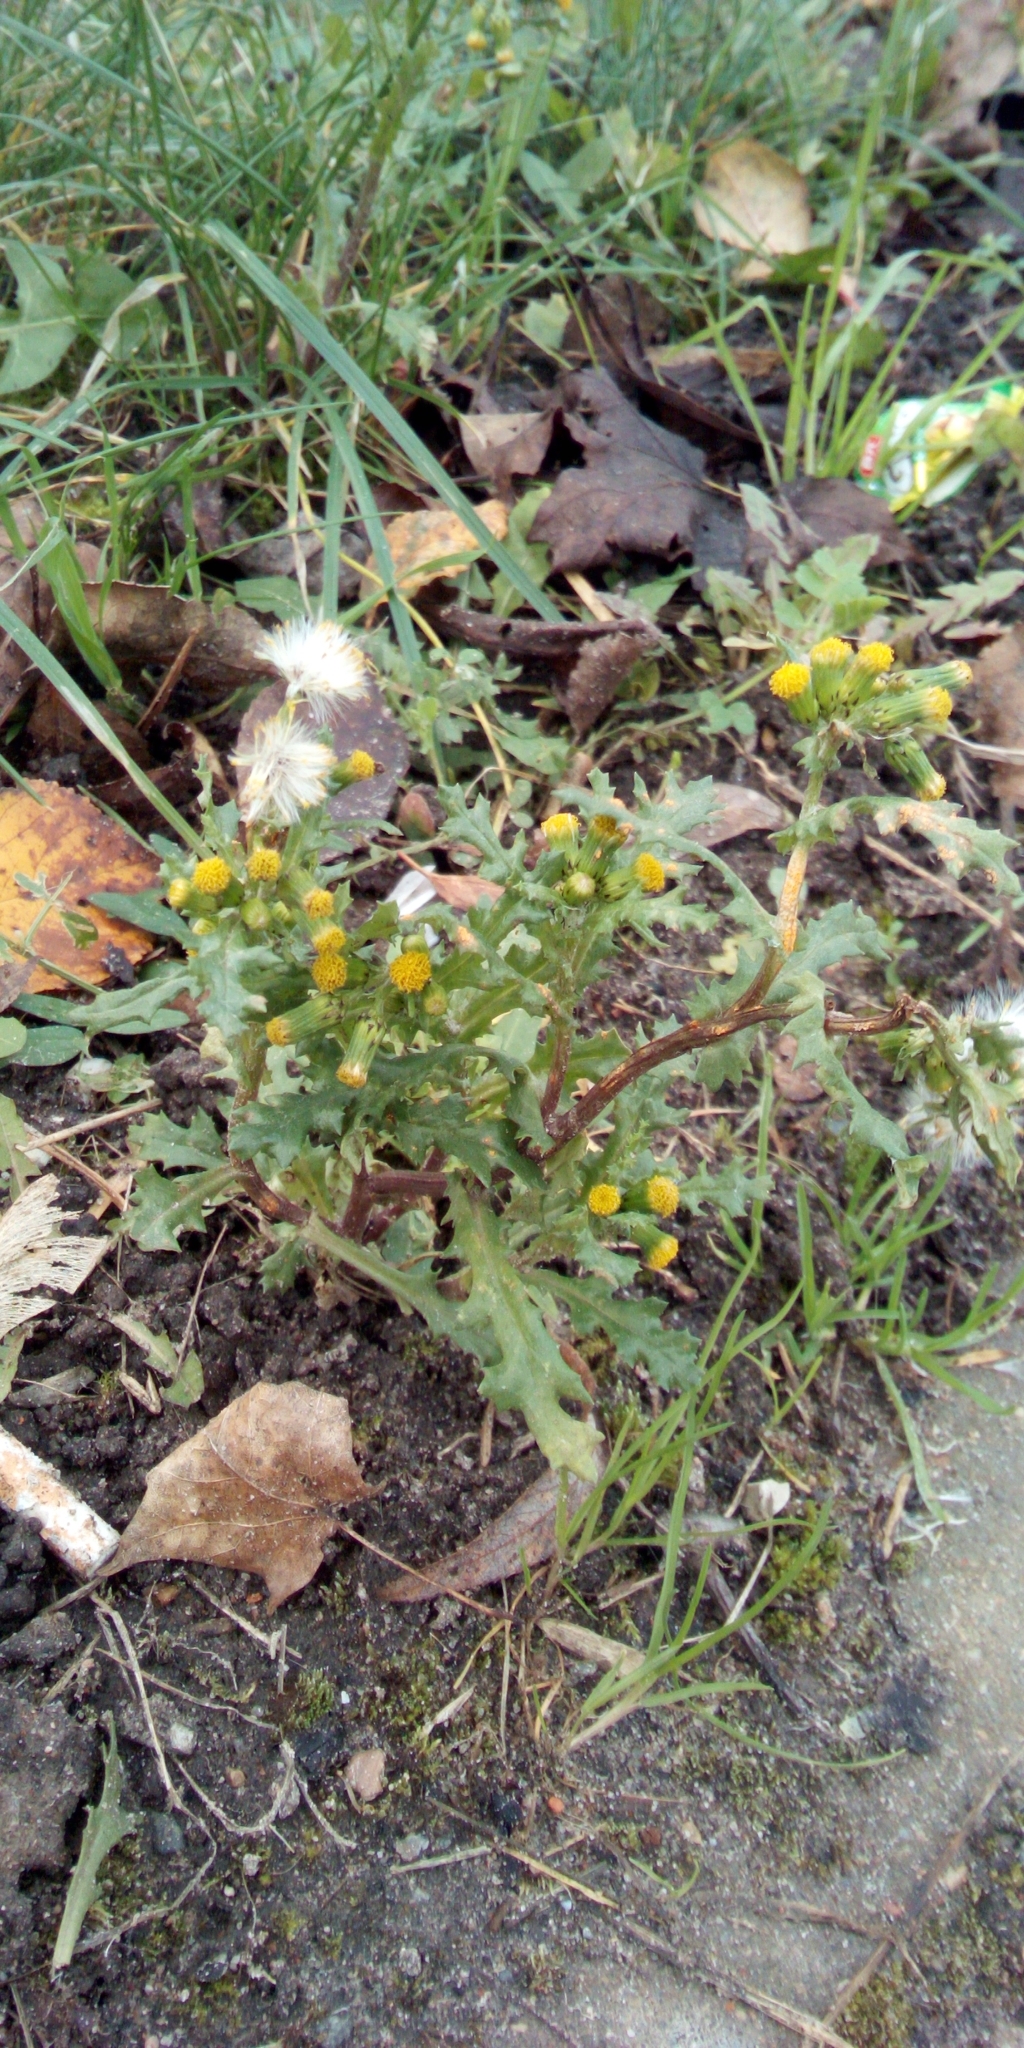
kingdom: Plantae
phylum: Tracheophyta
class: Magnoliopsida
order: Asterales
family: Asteraceae
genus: Senecio
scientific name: Senecio vulgaris
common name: Old-man-in-the-spring
